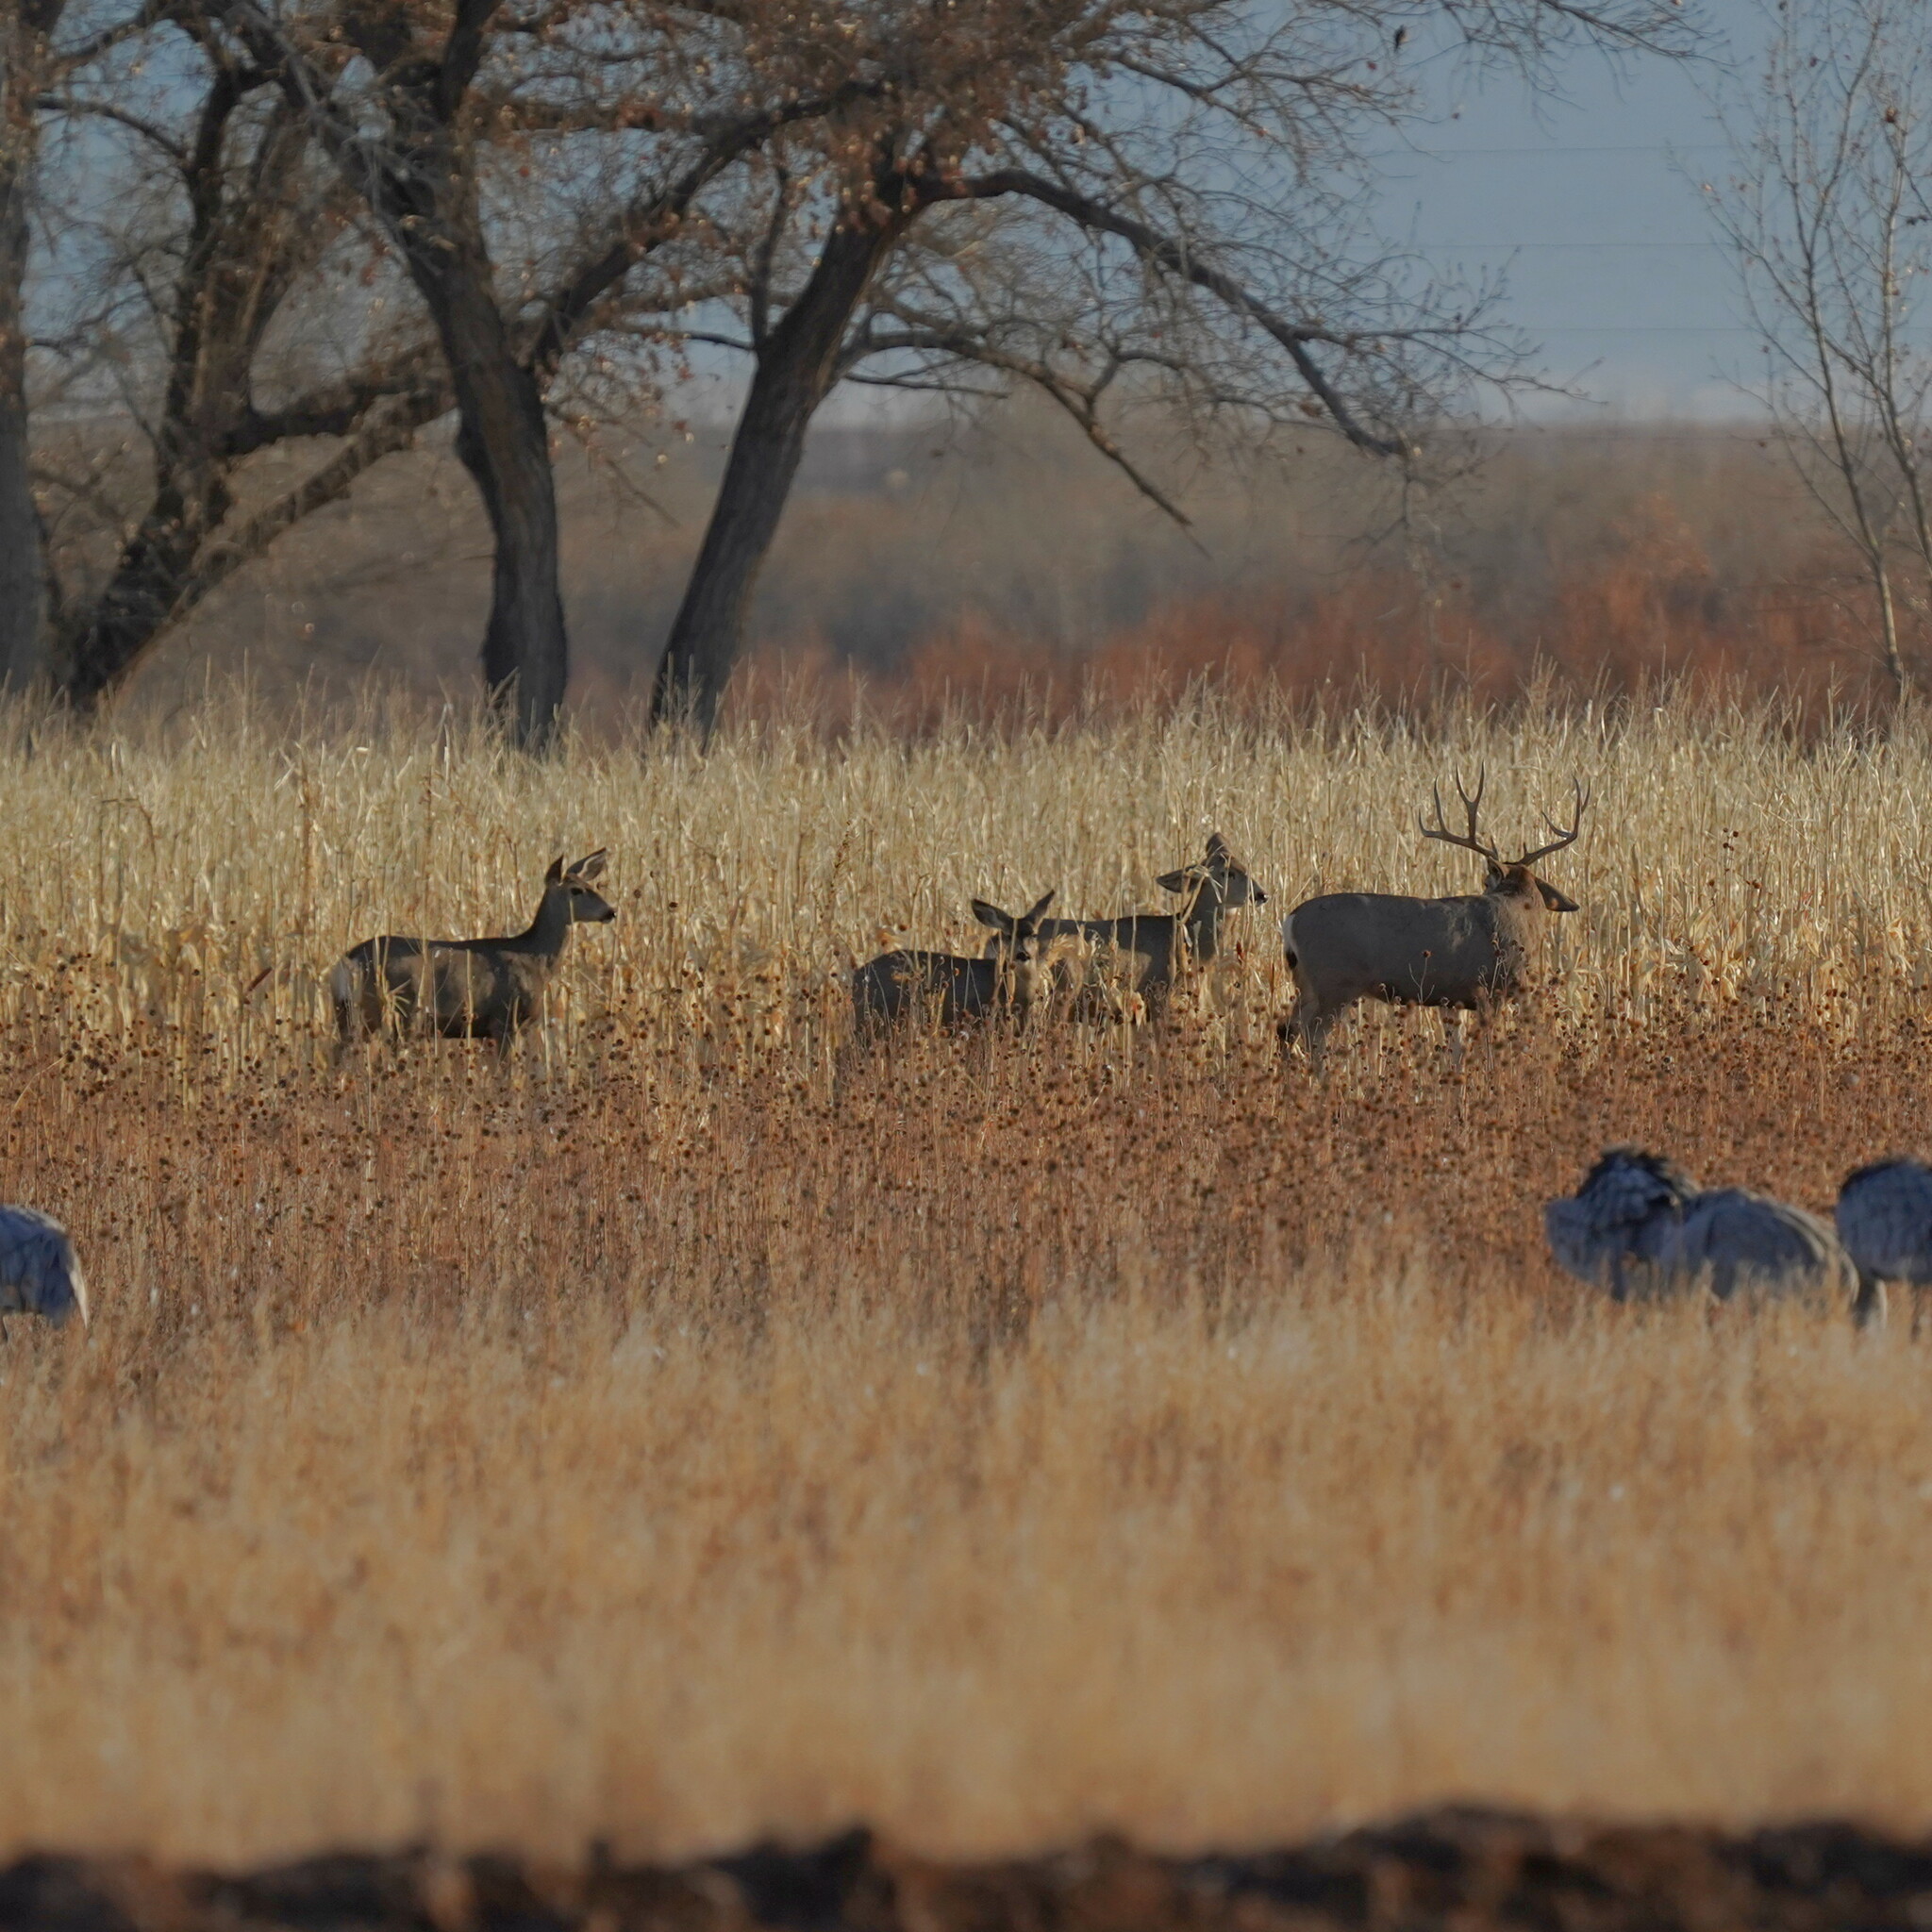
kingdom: Animalia
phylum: Chordata
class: Mammalia
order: Artiodactyla
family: Cervidae
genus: Odocoileus
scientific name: Odocoileus hemionus
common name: Mule deer
